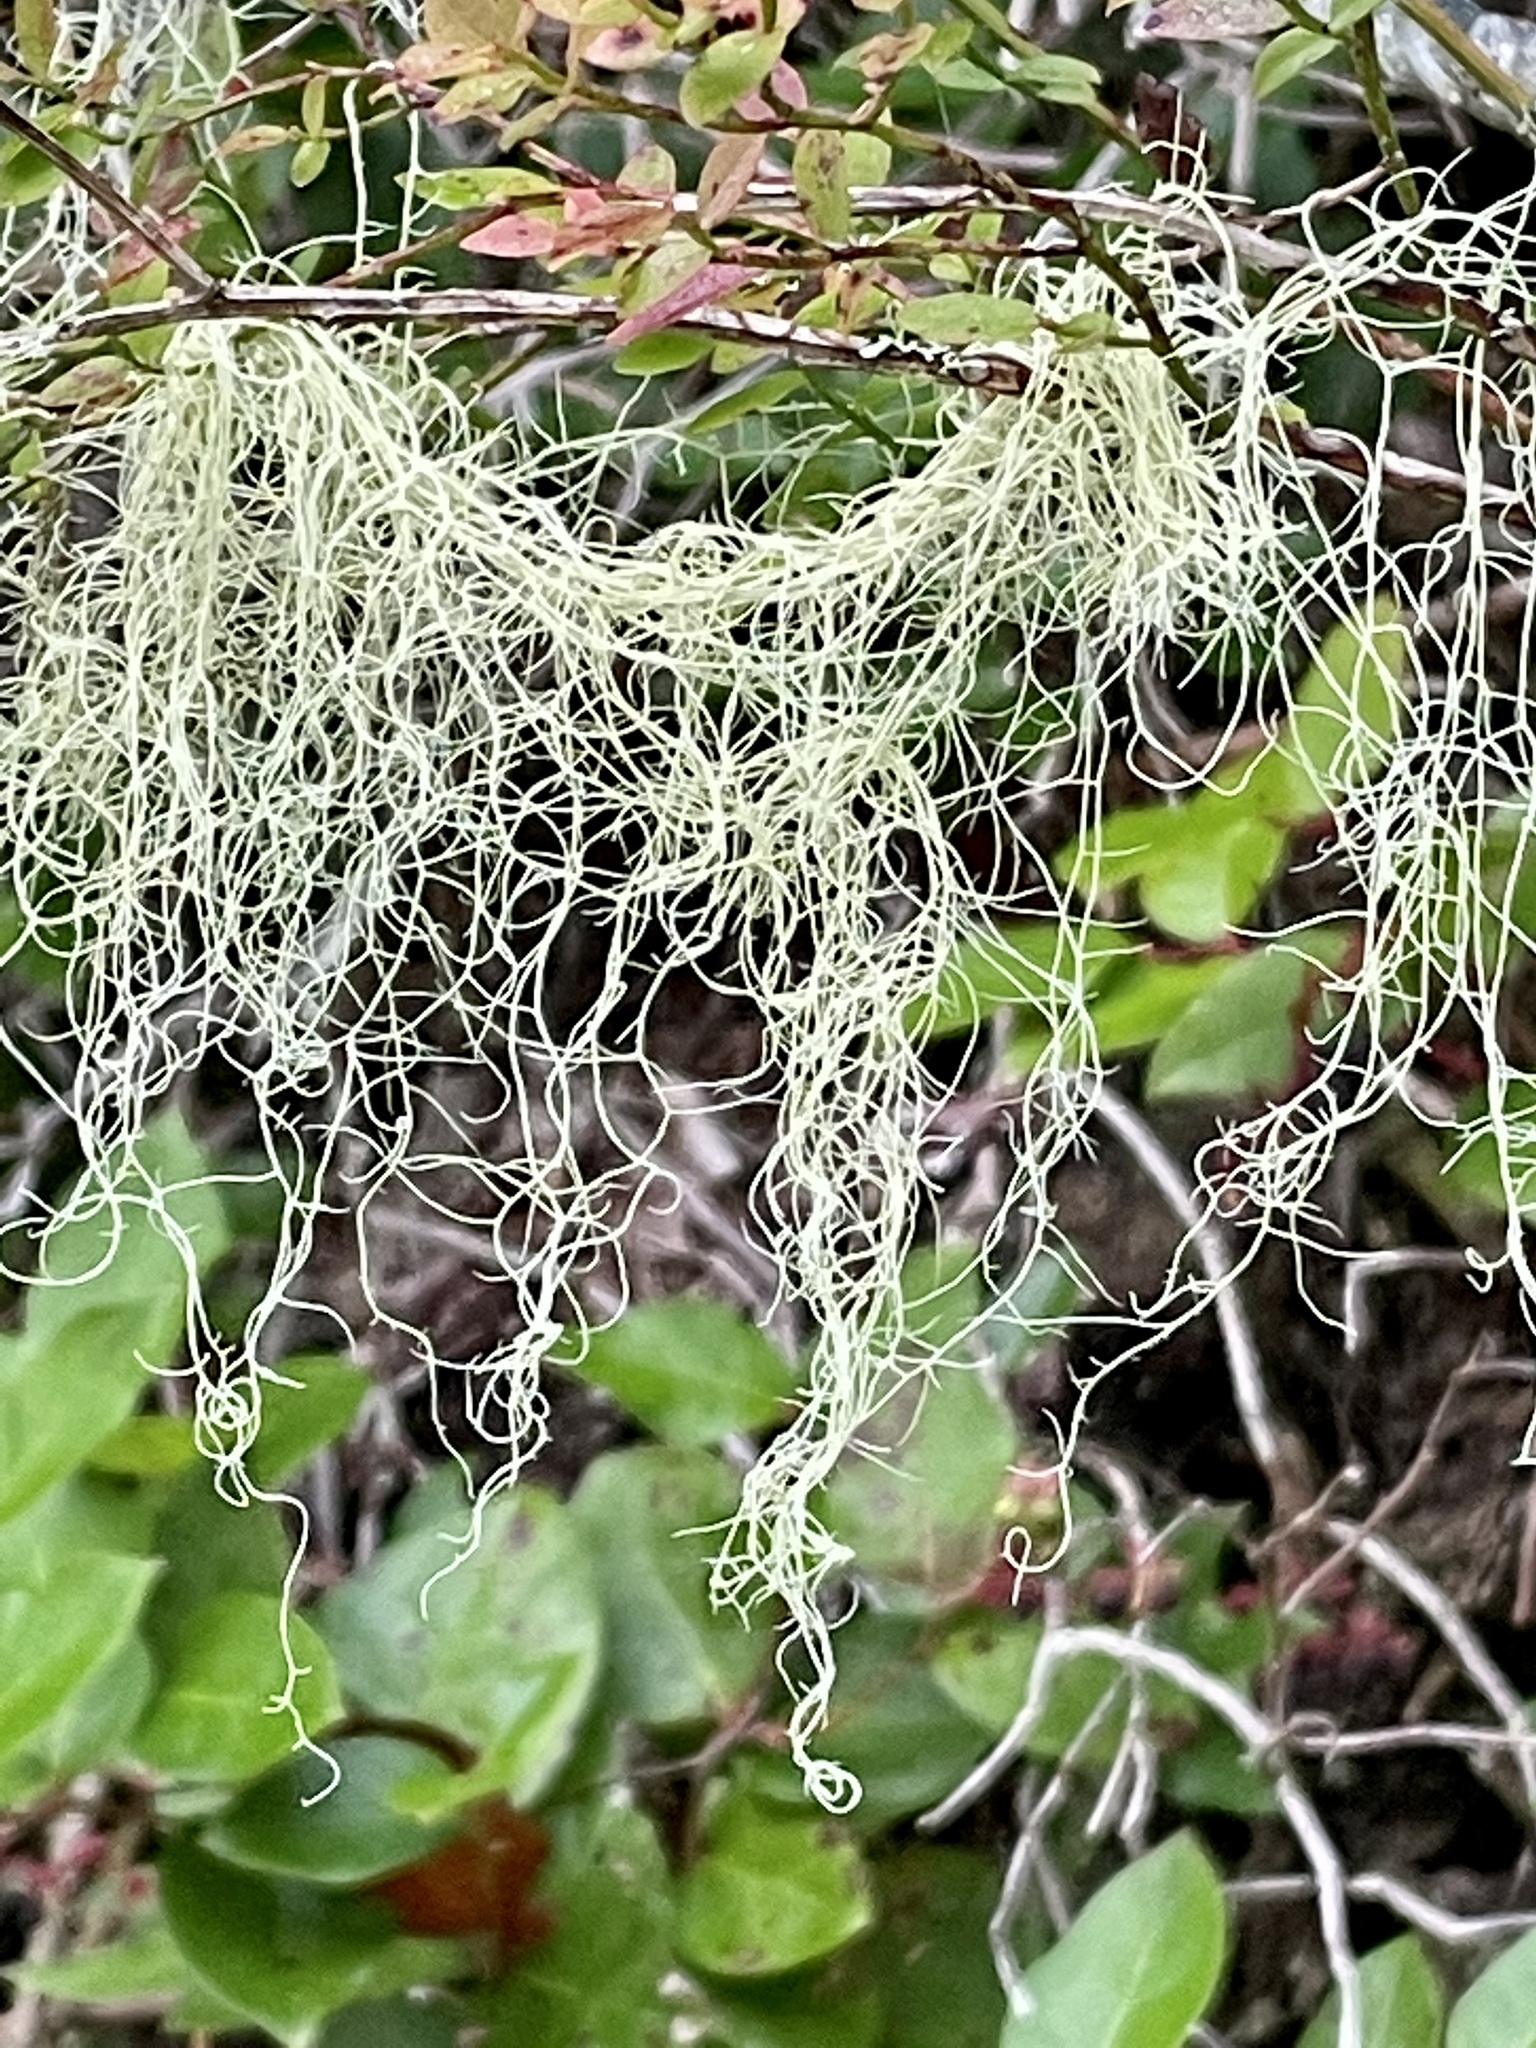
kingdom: Fungi
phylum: Ascomycota
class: Lecanoromycetes
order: Lecanorales
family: Ramalinaceae
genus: Ramalina
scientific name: Ramalina menziesii
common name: Lace lichen
